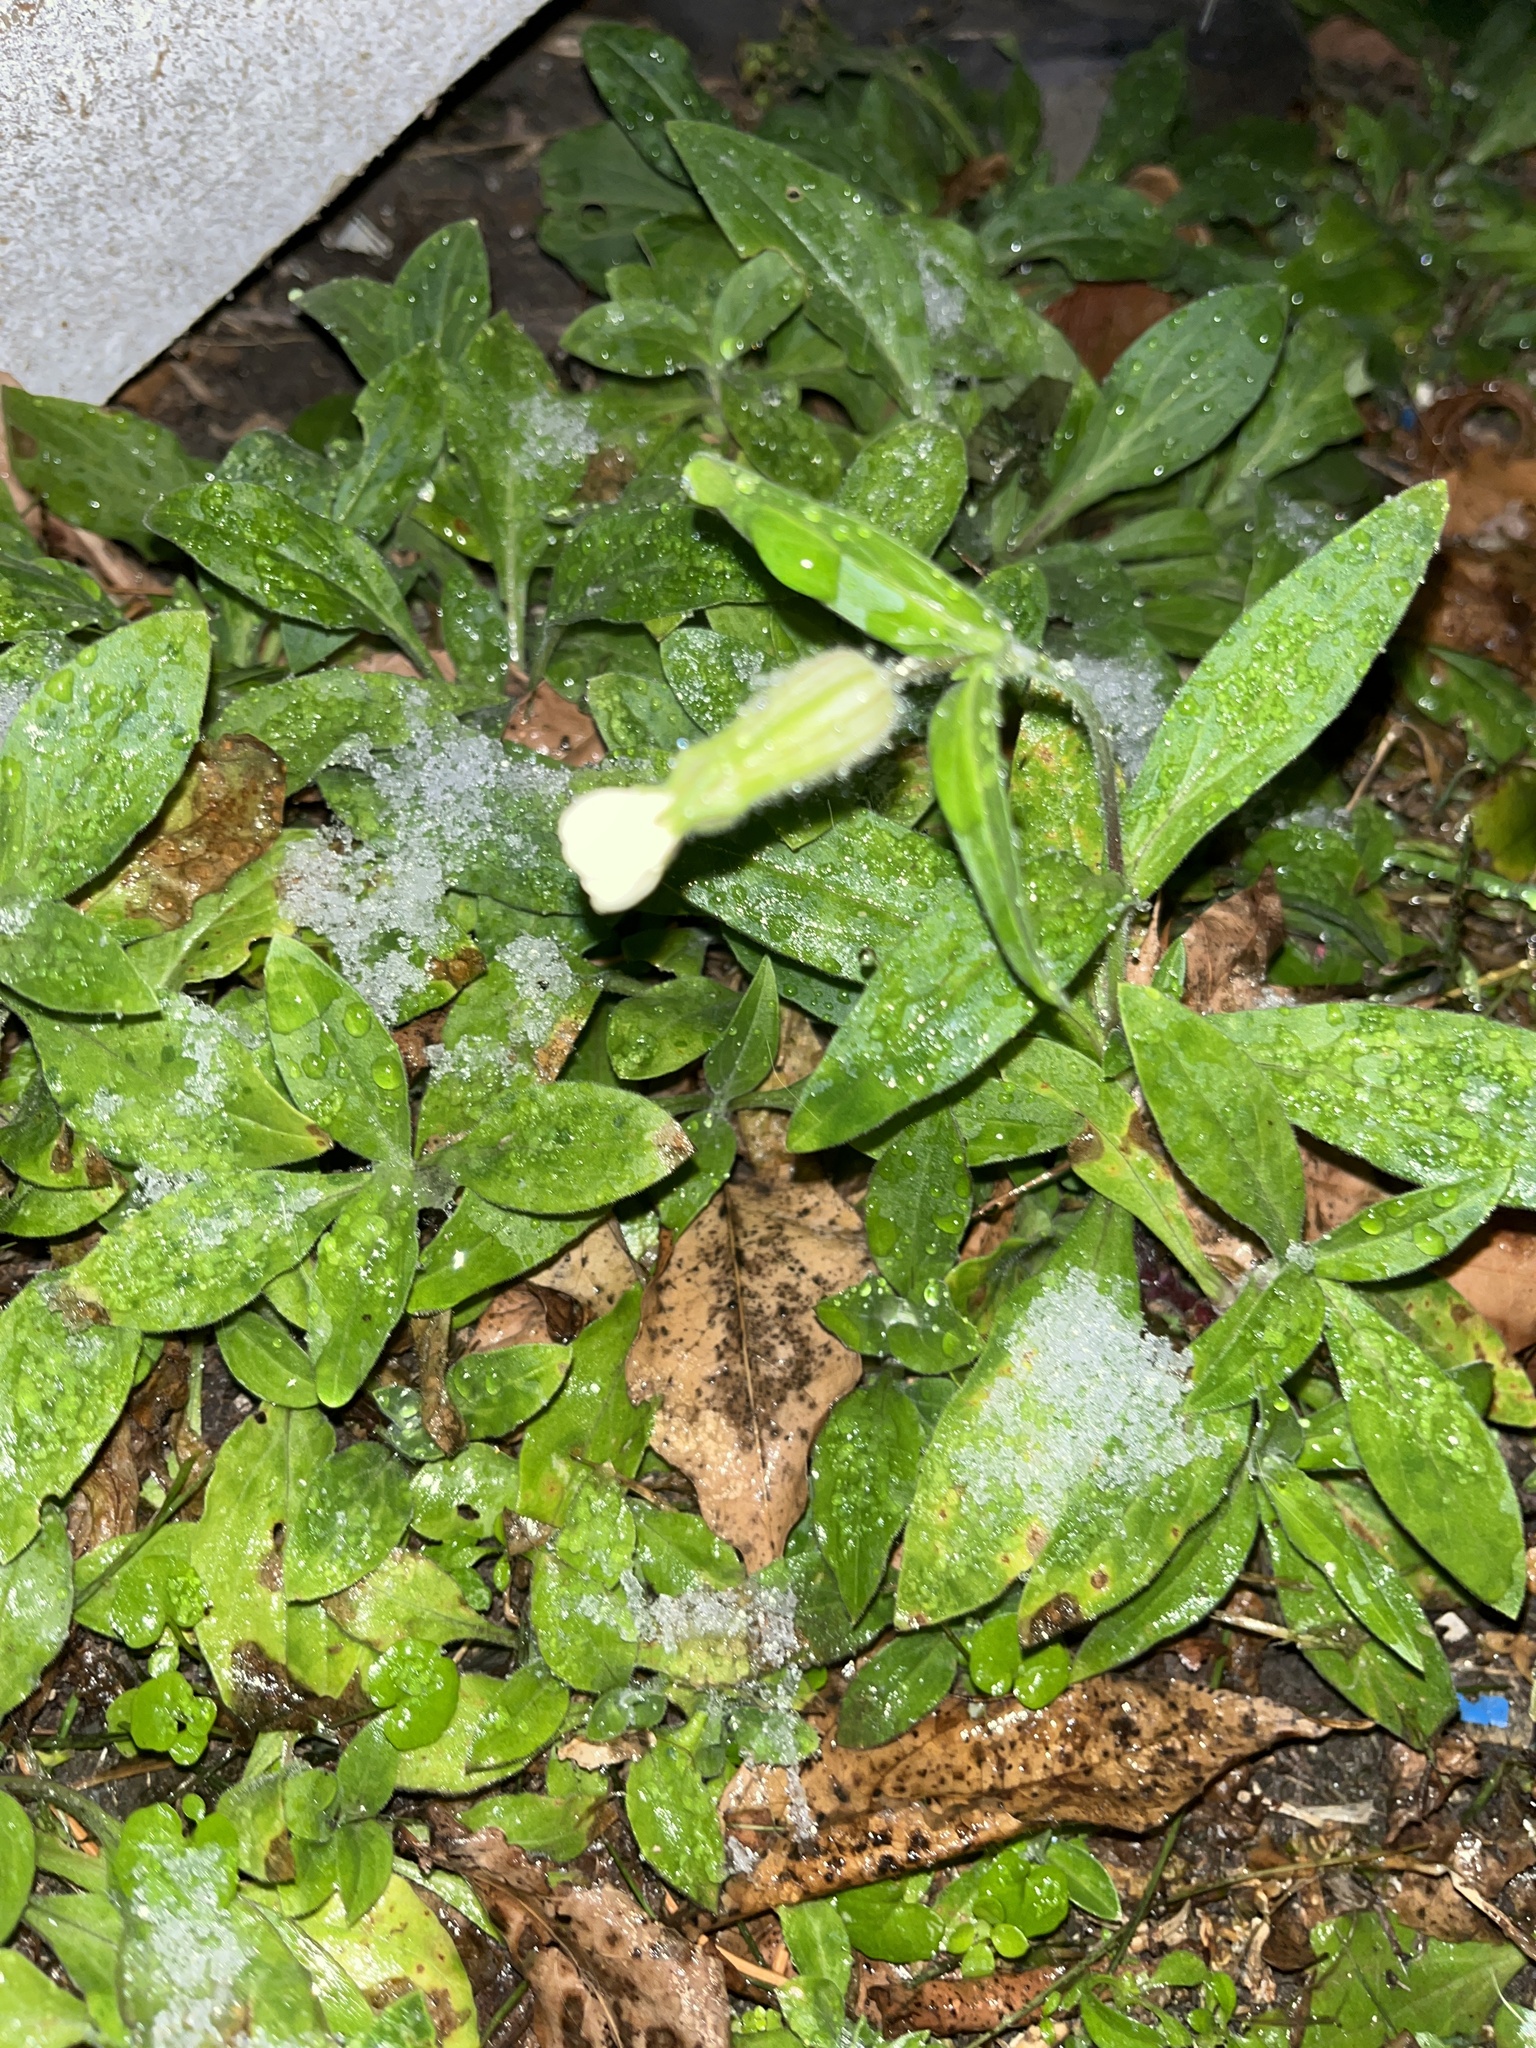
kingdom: Plantae
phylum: Tracheophyta
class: Magnoliopsida
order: Caryophyllales
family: Caryophyllaceae
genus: Silene
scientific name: Silene latifolia
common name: White campion
